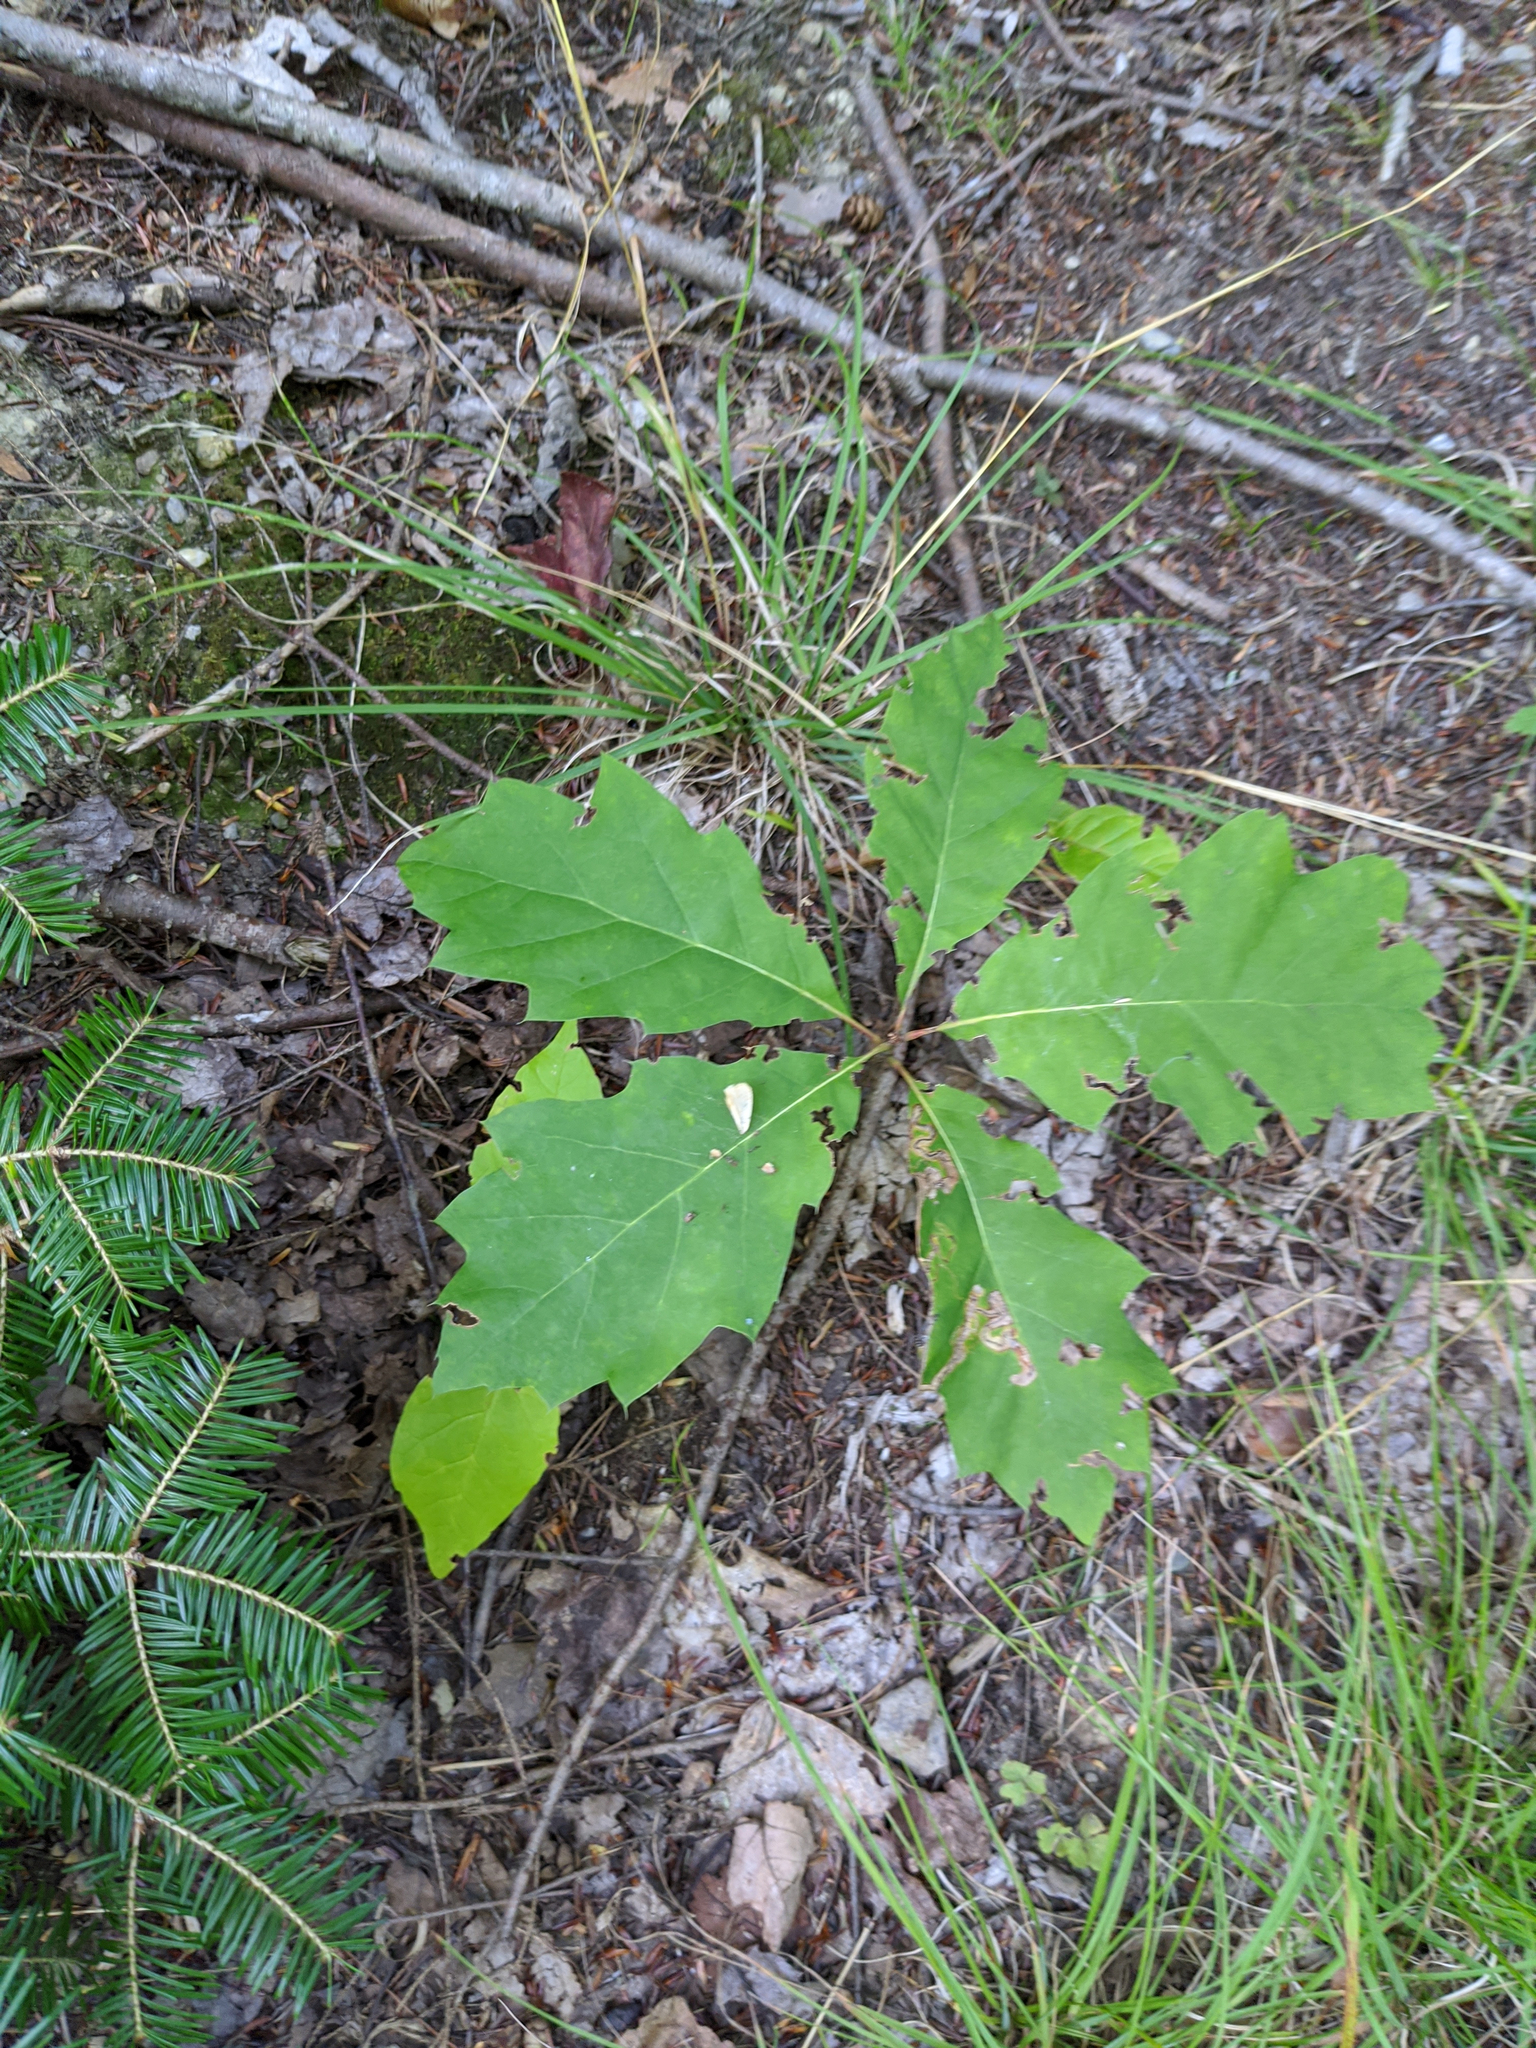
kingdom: Plantae
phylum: Tracheophyta
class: Magnoliopsida
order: Fagales
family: Fagaceae
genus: Quercus
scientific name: Quercus rubra
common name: Red oak
